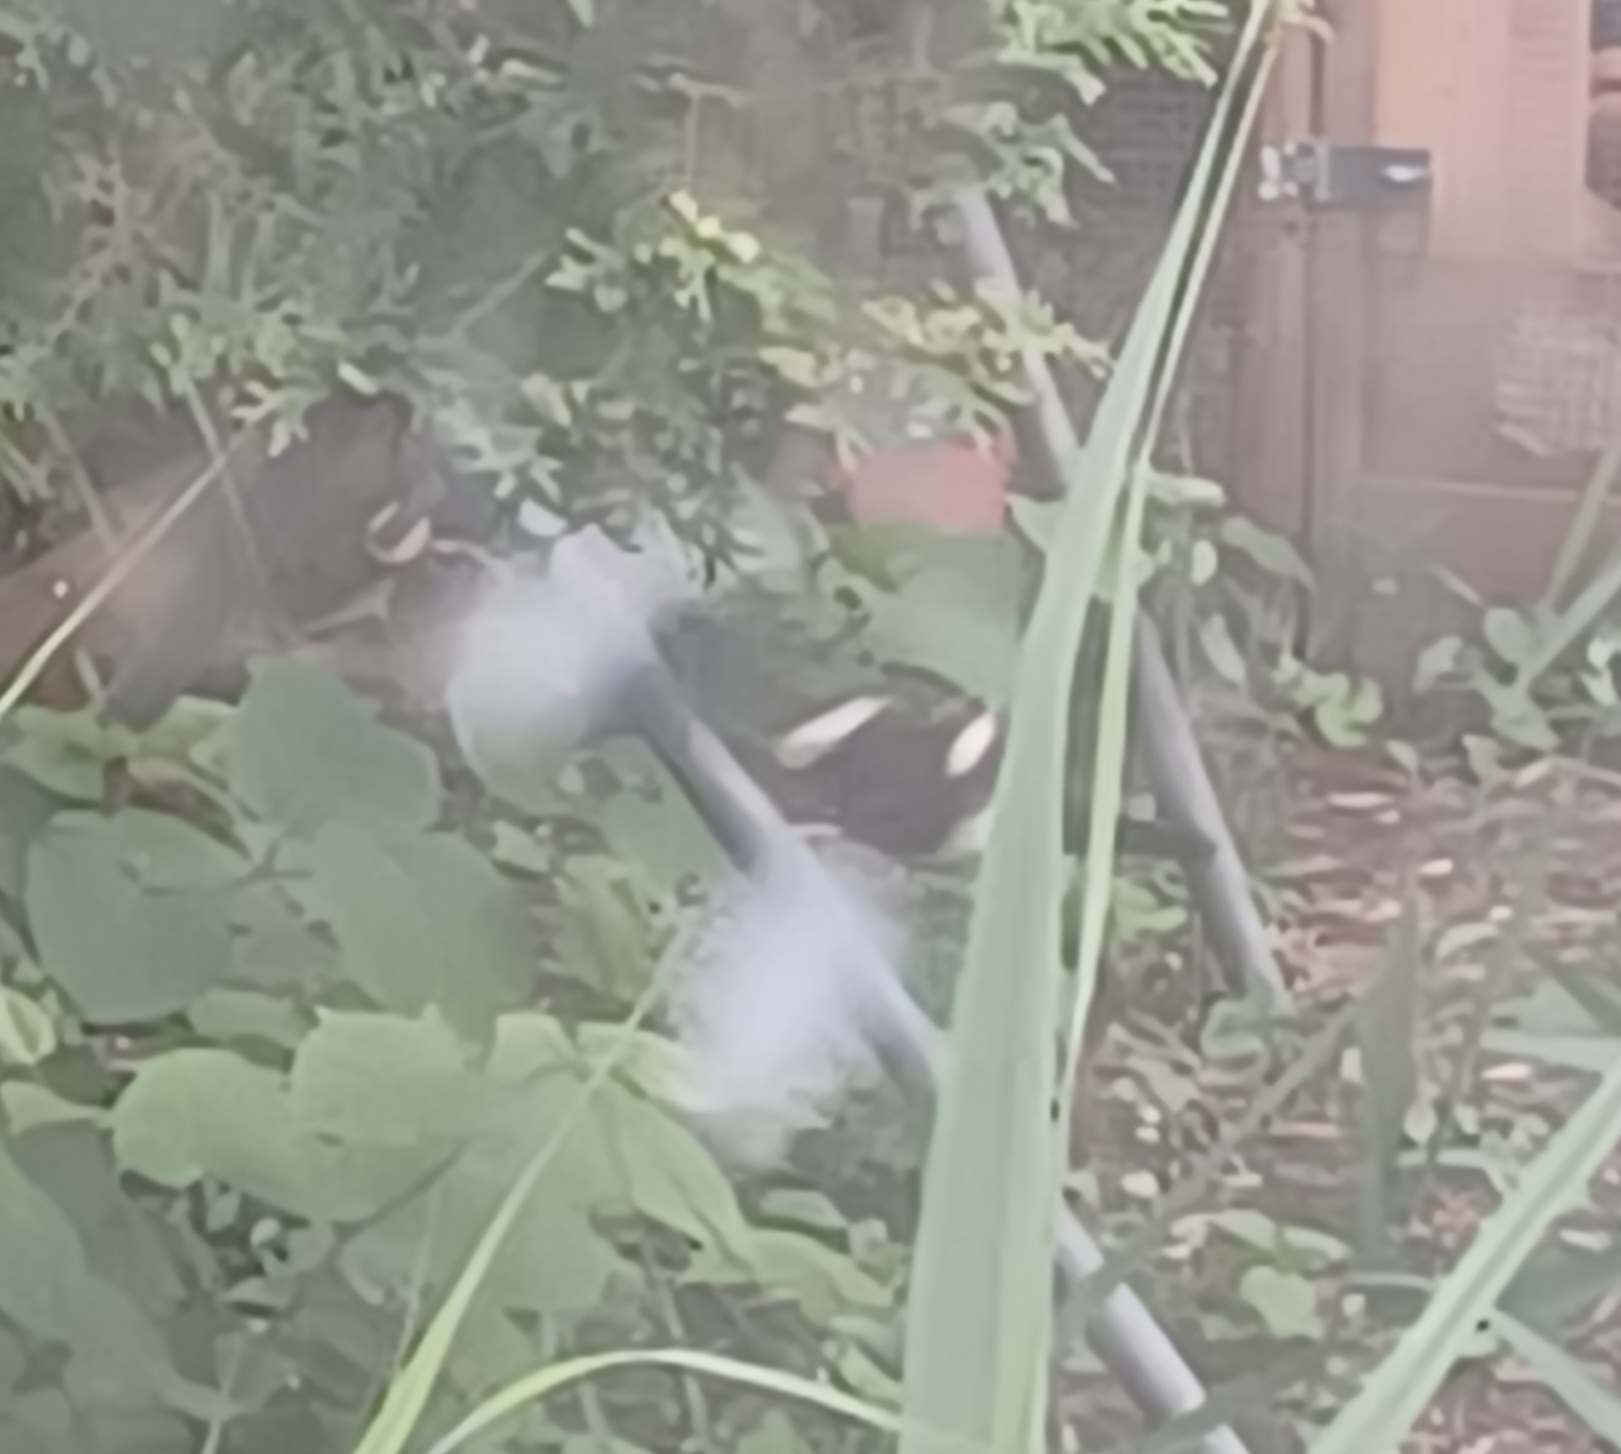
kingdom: Animalia
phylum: Chordata
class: Aves
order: Passeriformes
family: Corvidae
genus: Pica
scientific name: Pica pica
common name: Eurasian magpie
